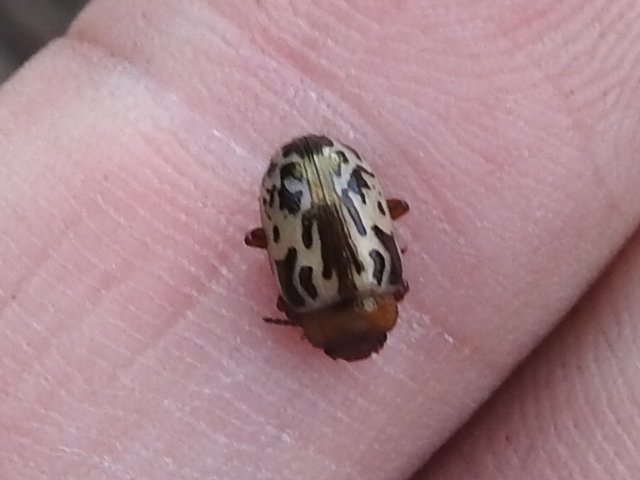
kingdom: Animalia
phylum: Arthropoda
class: Insecta
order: Coleoptera
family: Chrysomelidae
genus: Calligrapha
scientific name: Calligrapha
